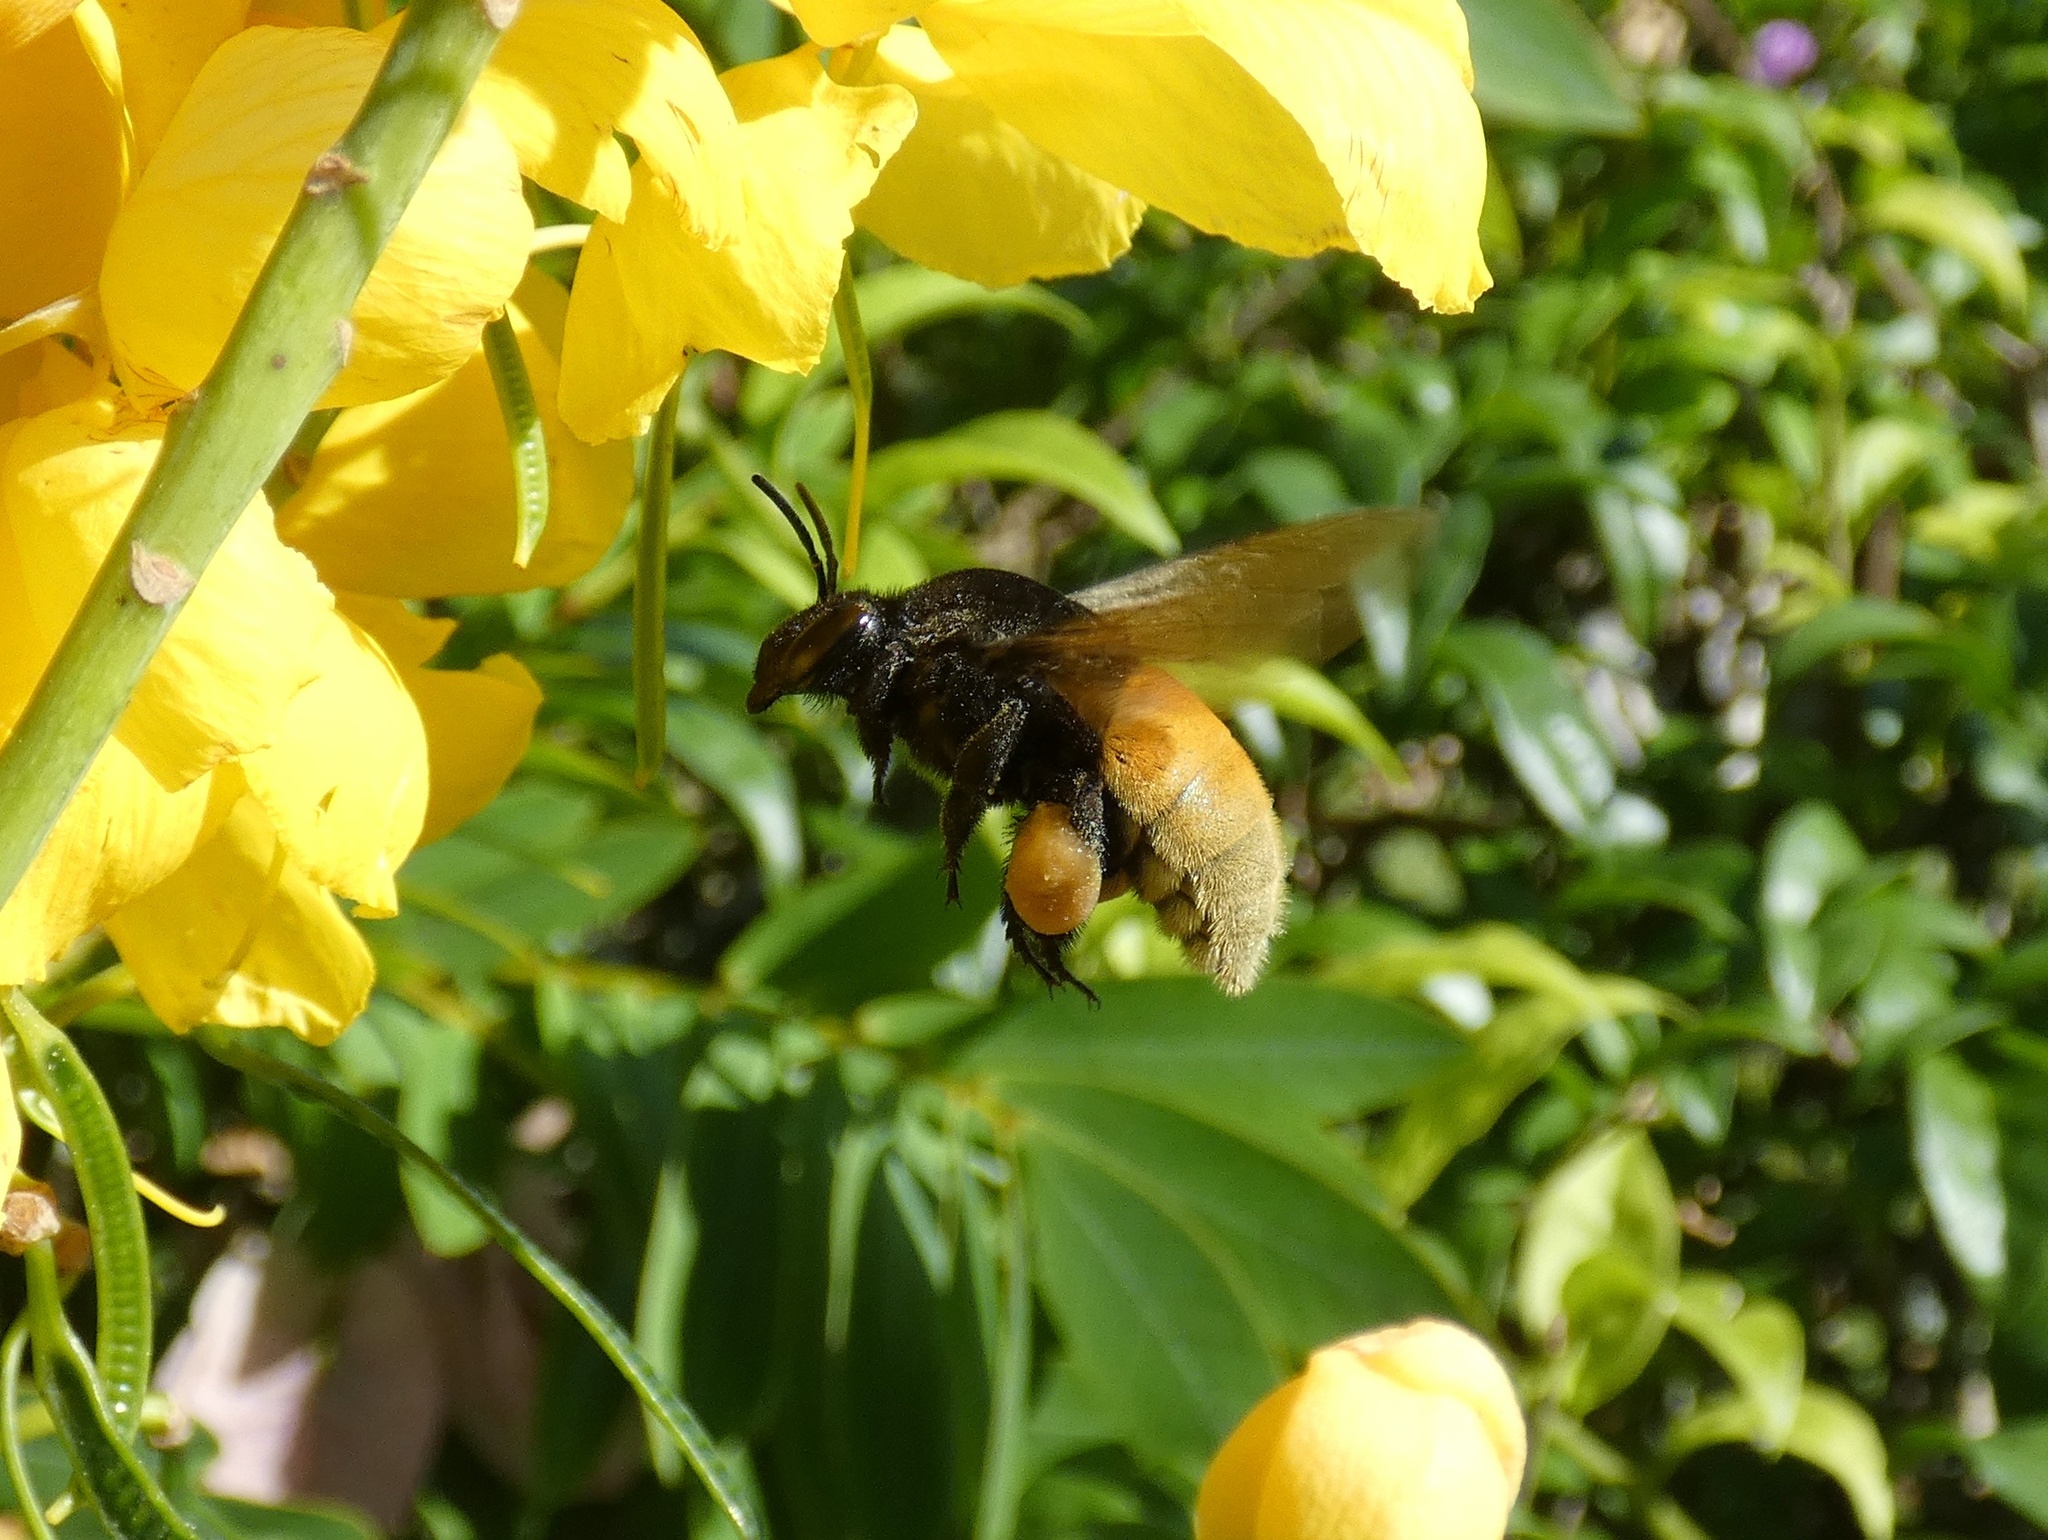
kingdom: Animalia
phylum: Arthropoda
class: Insecta
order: Hymenoptera
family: Apidae
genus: Eulaema
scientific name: Eulaema polychroma
